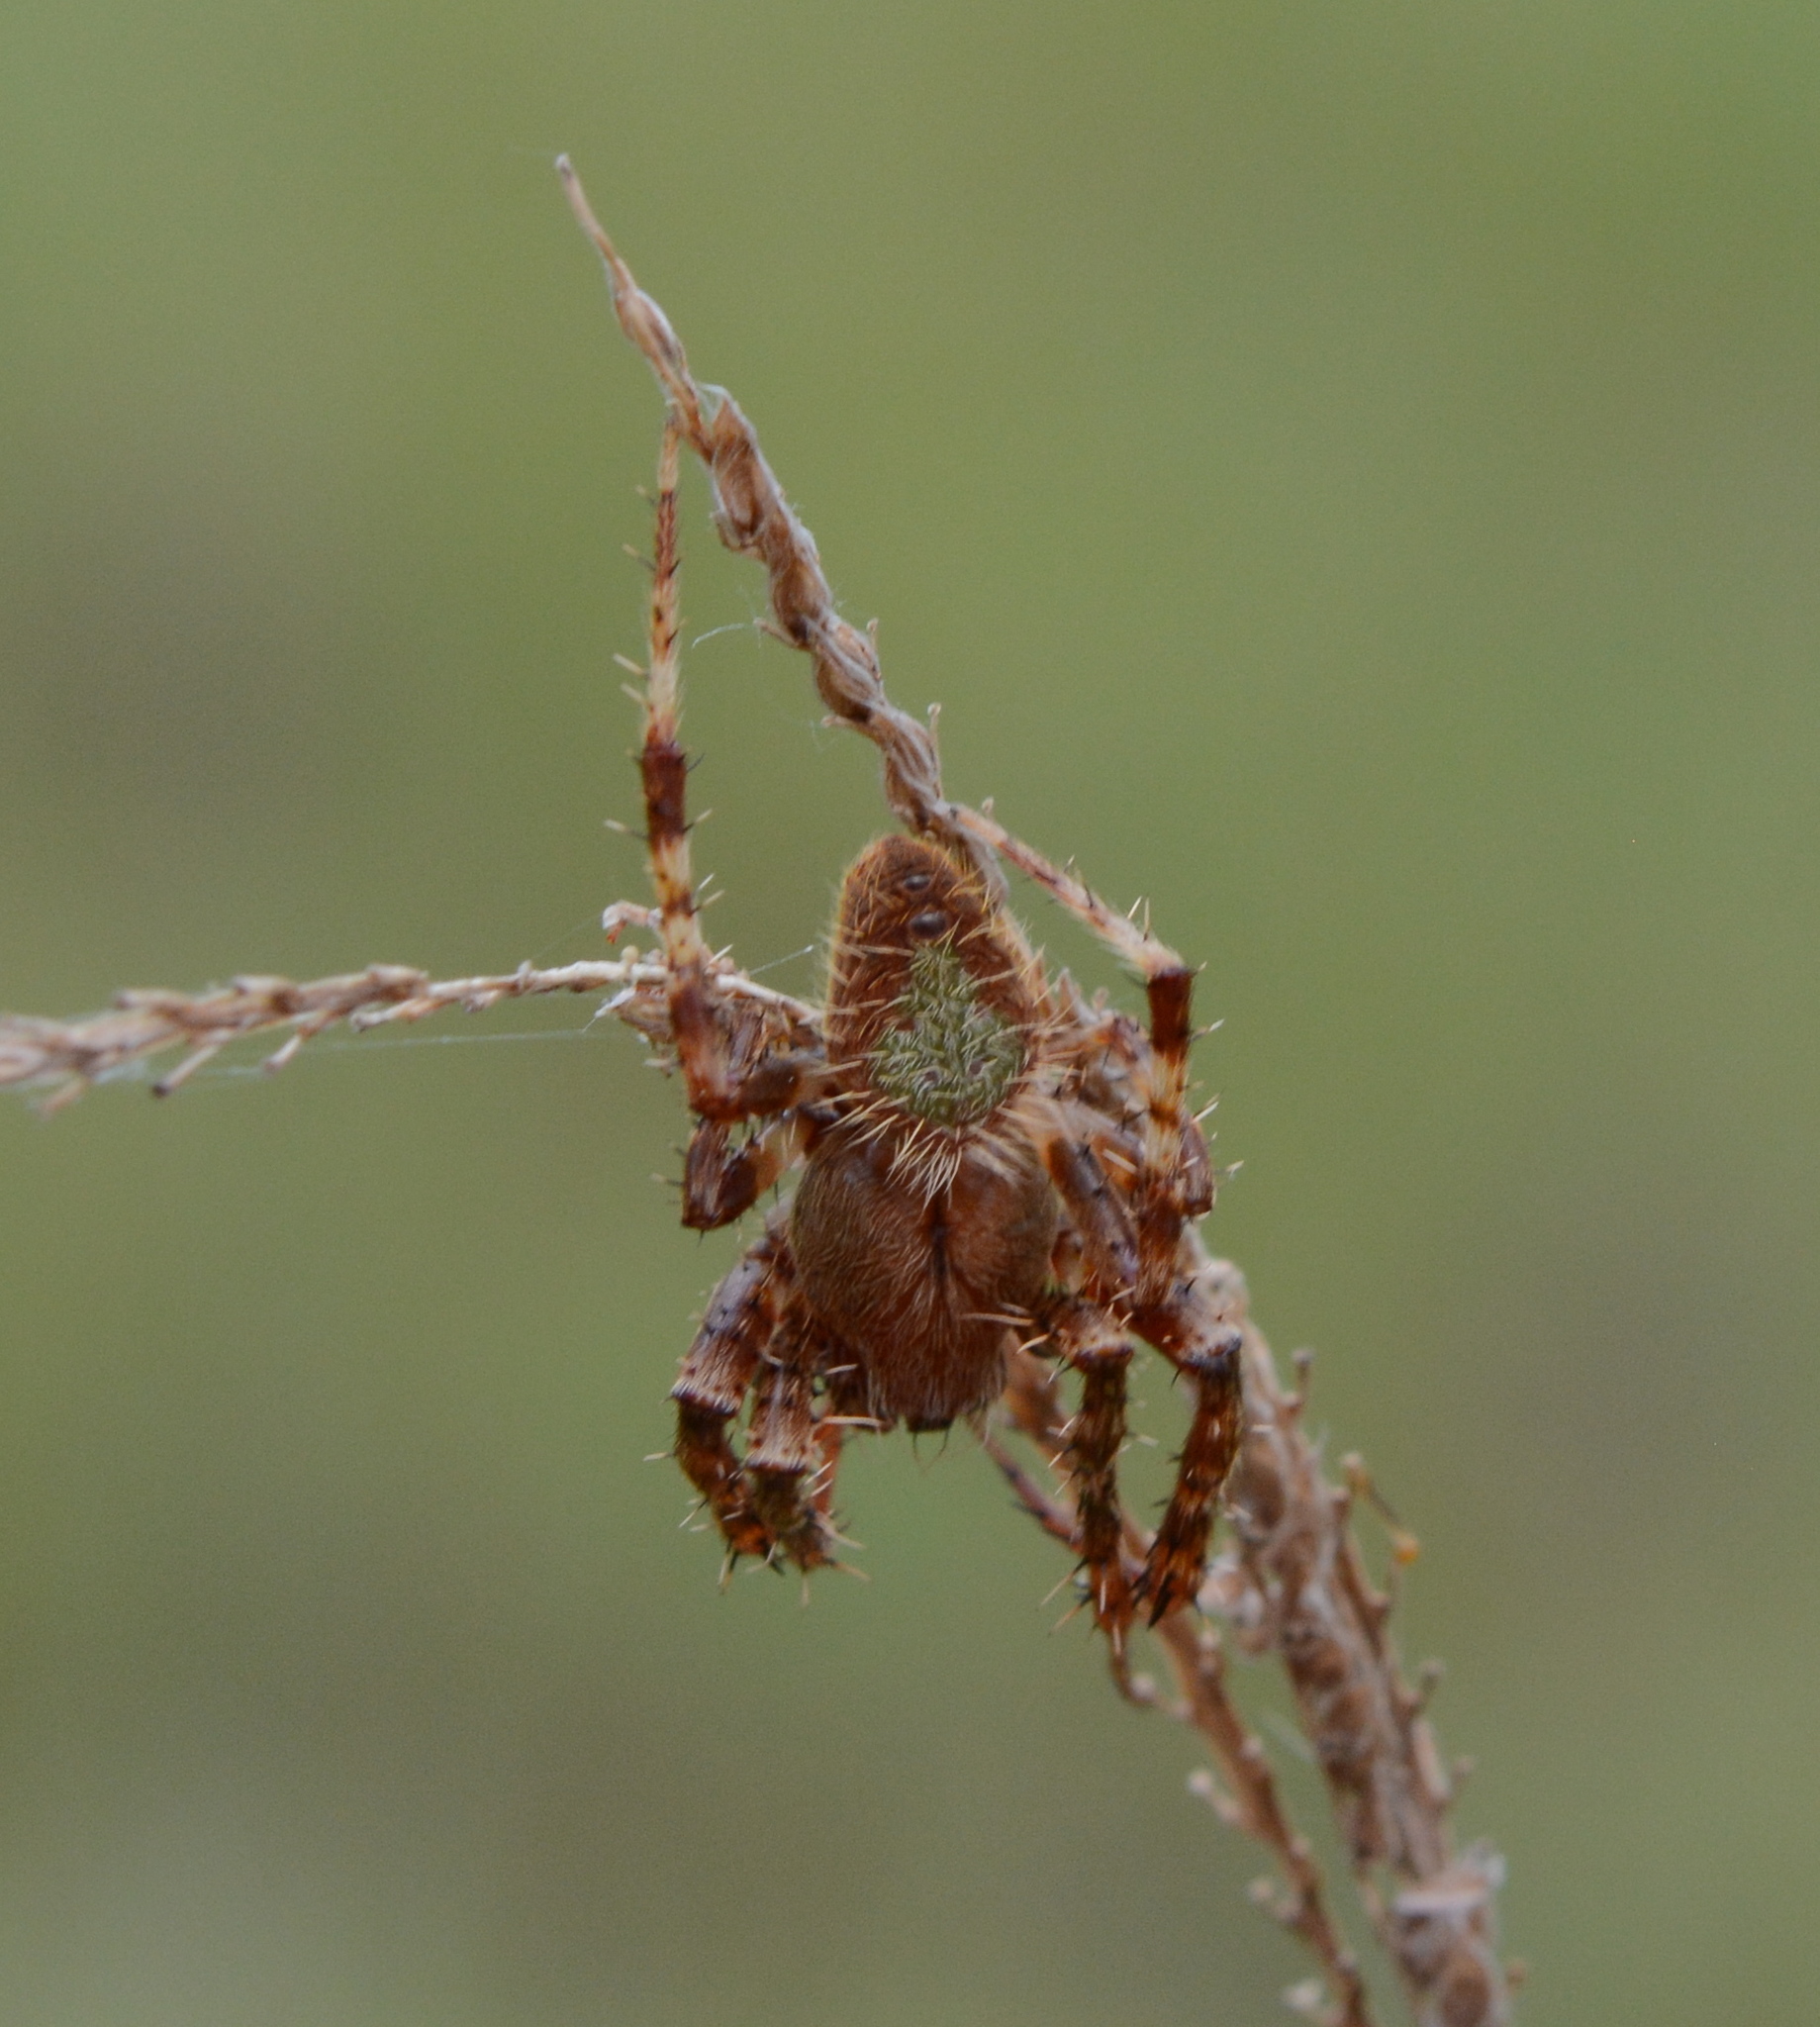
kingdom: Animalia
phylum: Arthropoda
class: Arachnida
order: Araneae
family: Araneidae
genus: Eriophora
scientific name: Eriophora ravilla
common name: Orb weavers
